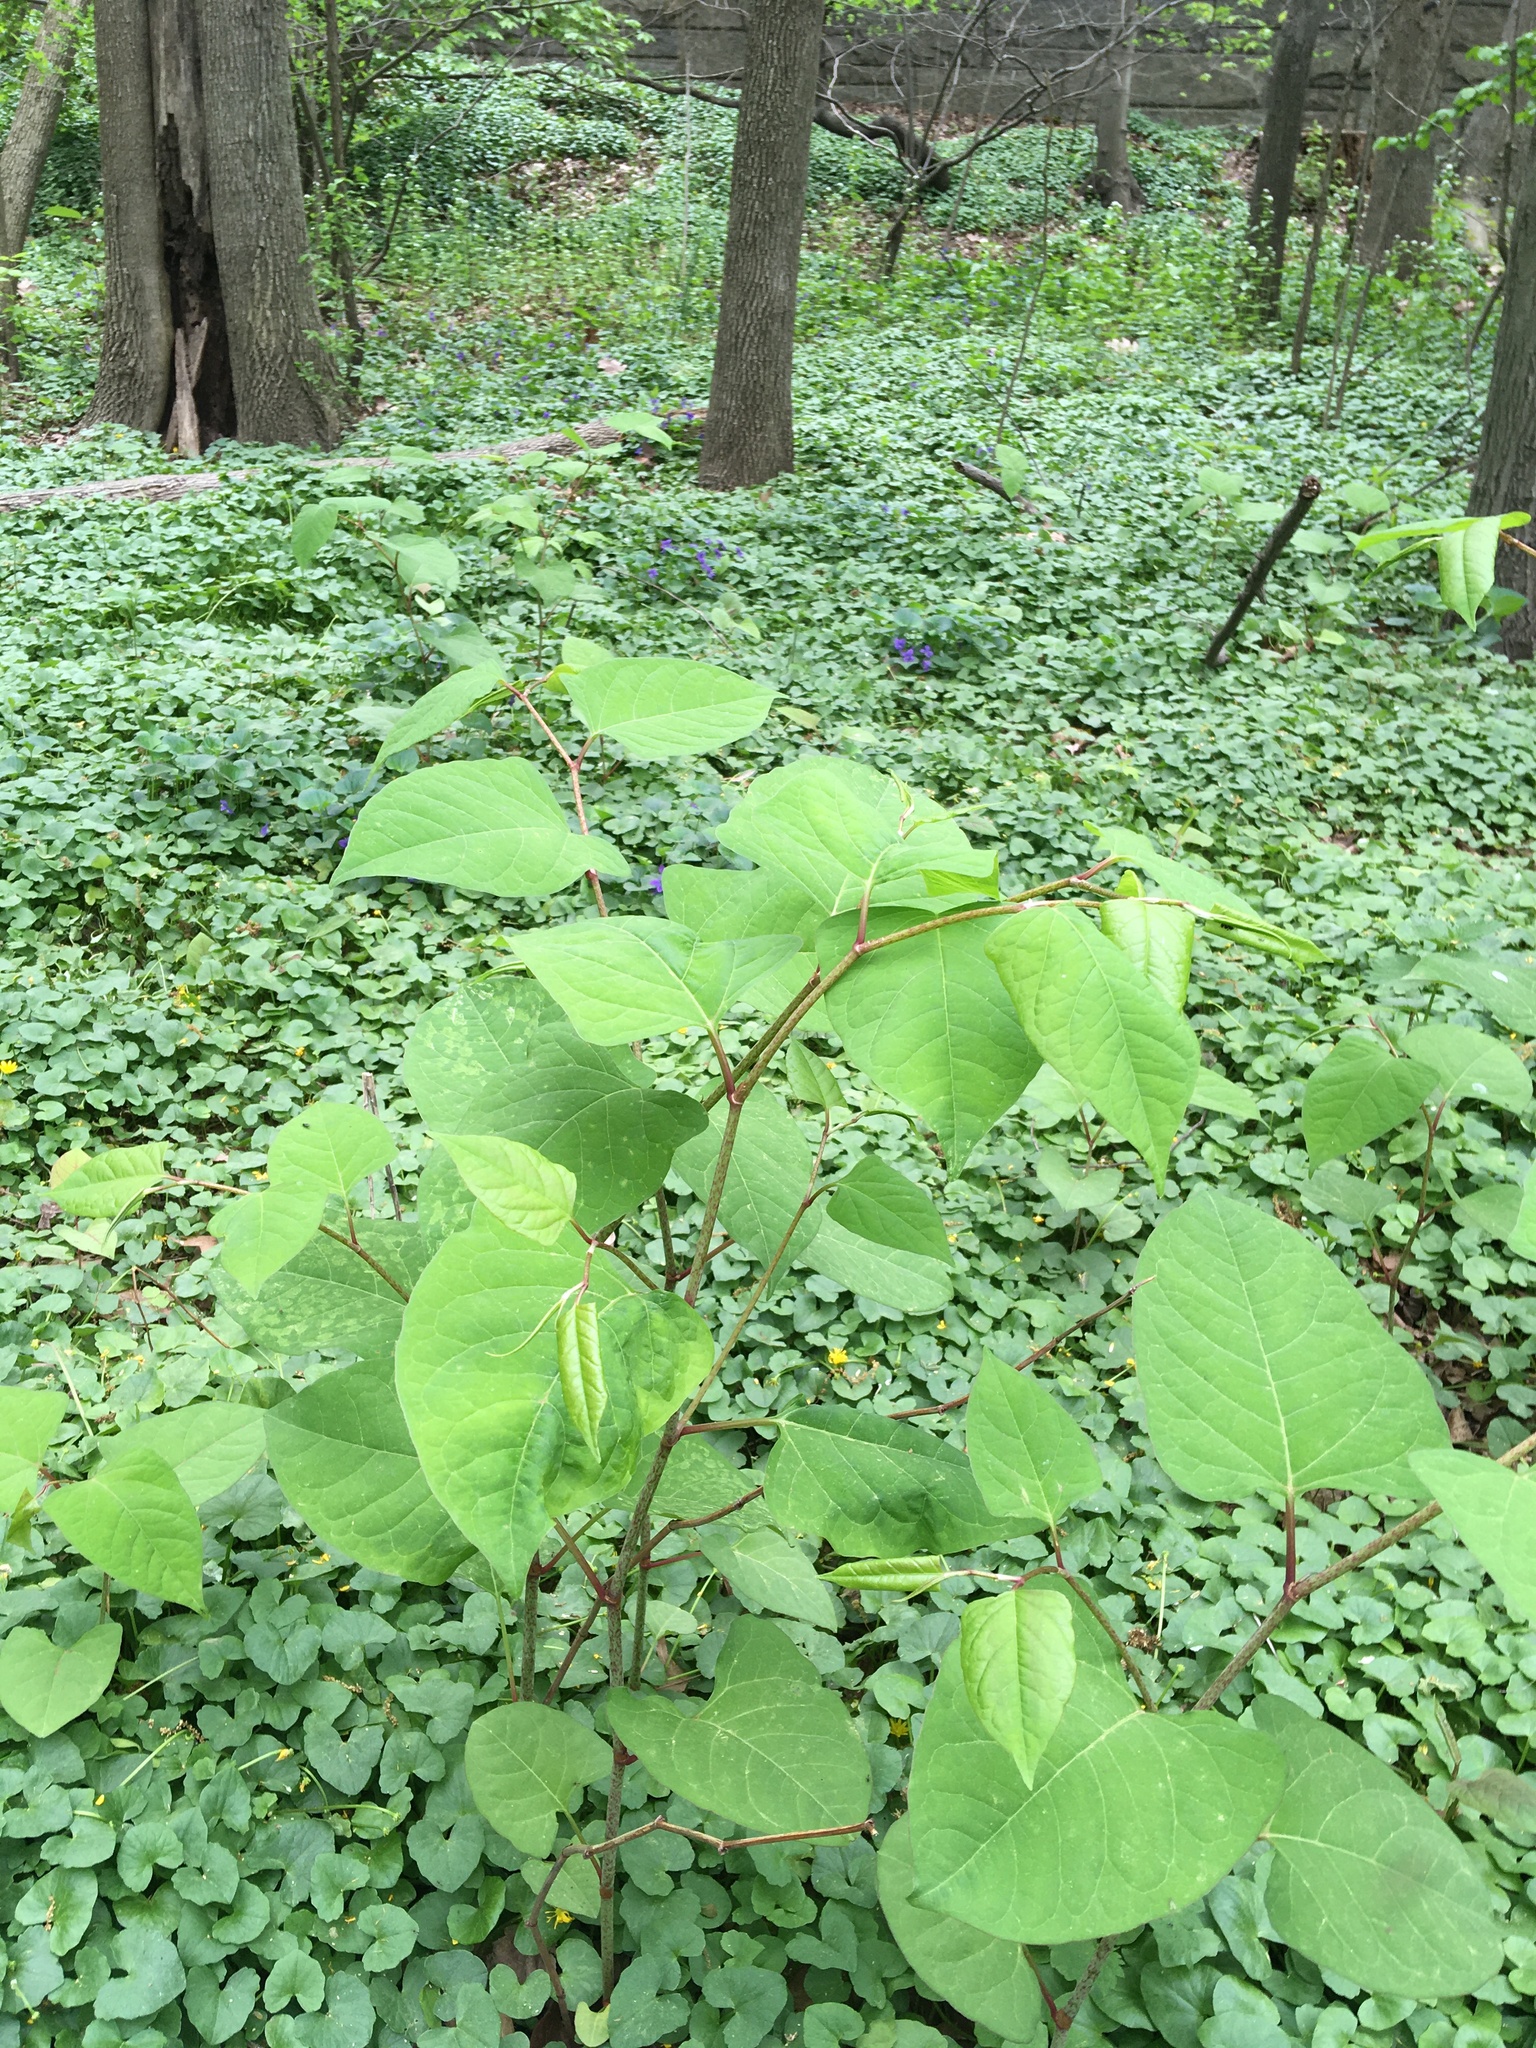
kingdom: Plantae
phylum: Tracheophyta
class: Magnoliopsida
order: Caryophyllales
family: Polygonaceae
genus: Reynoutria
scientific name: Reynoutria japonica
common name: Japanese knotweed
